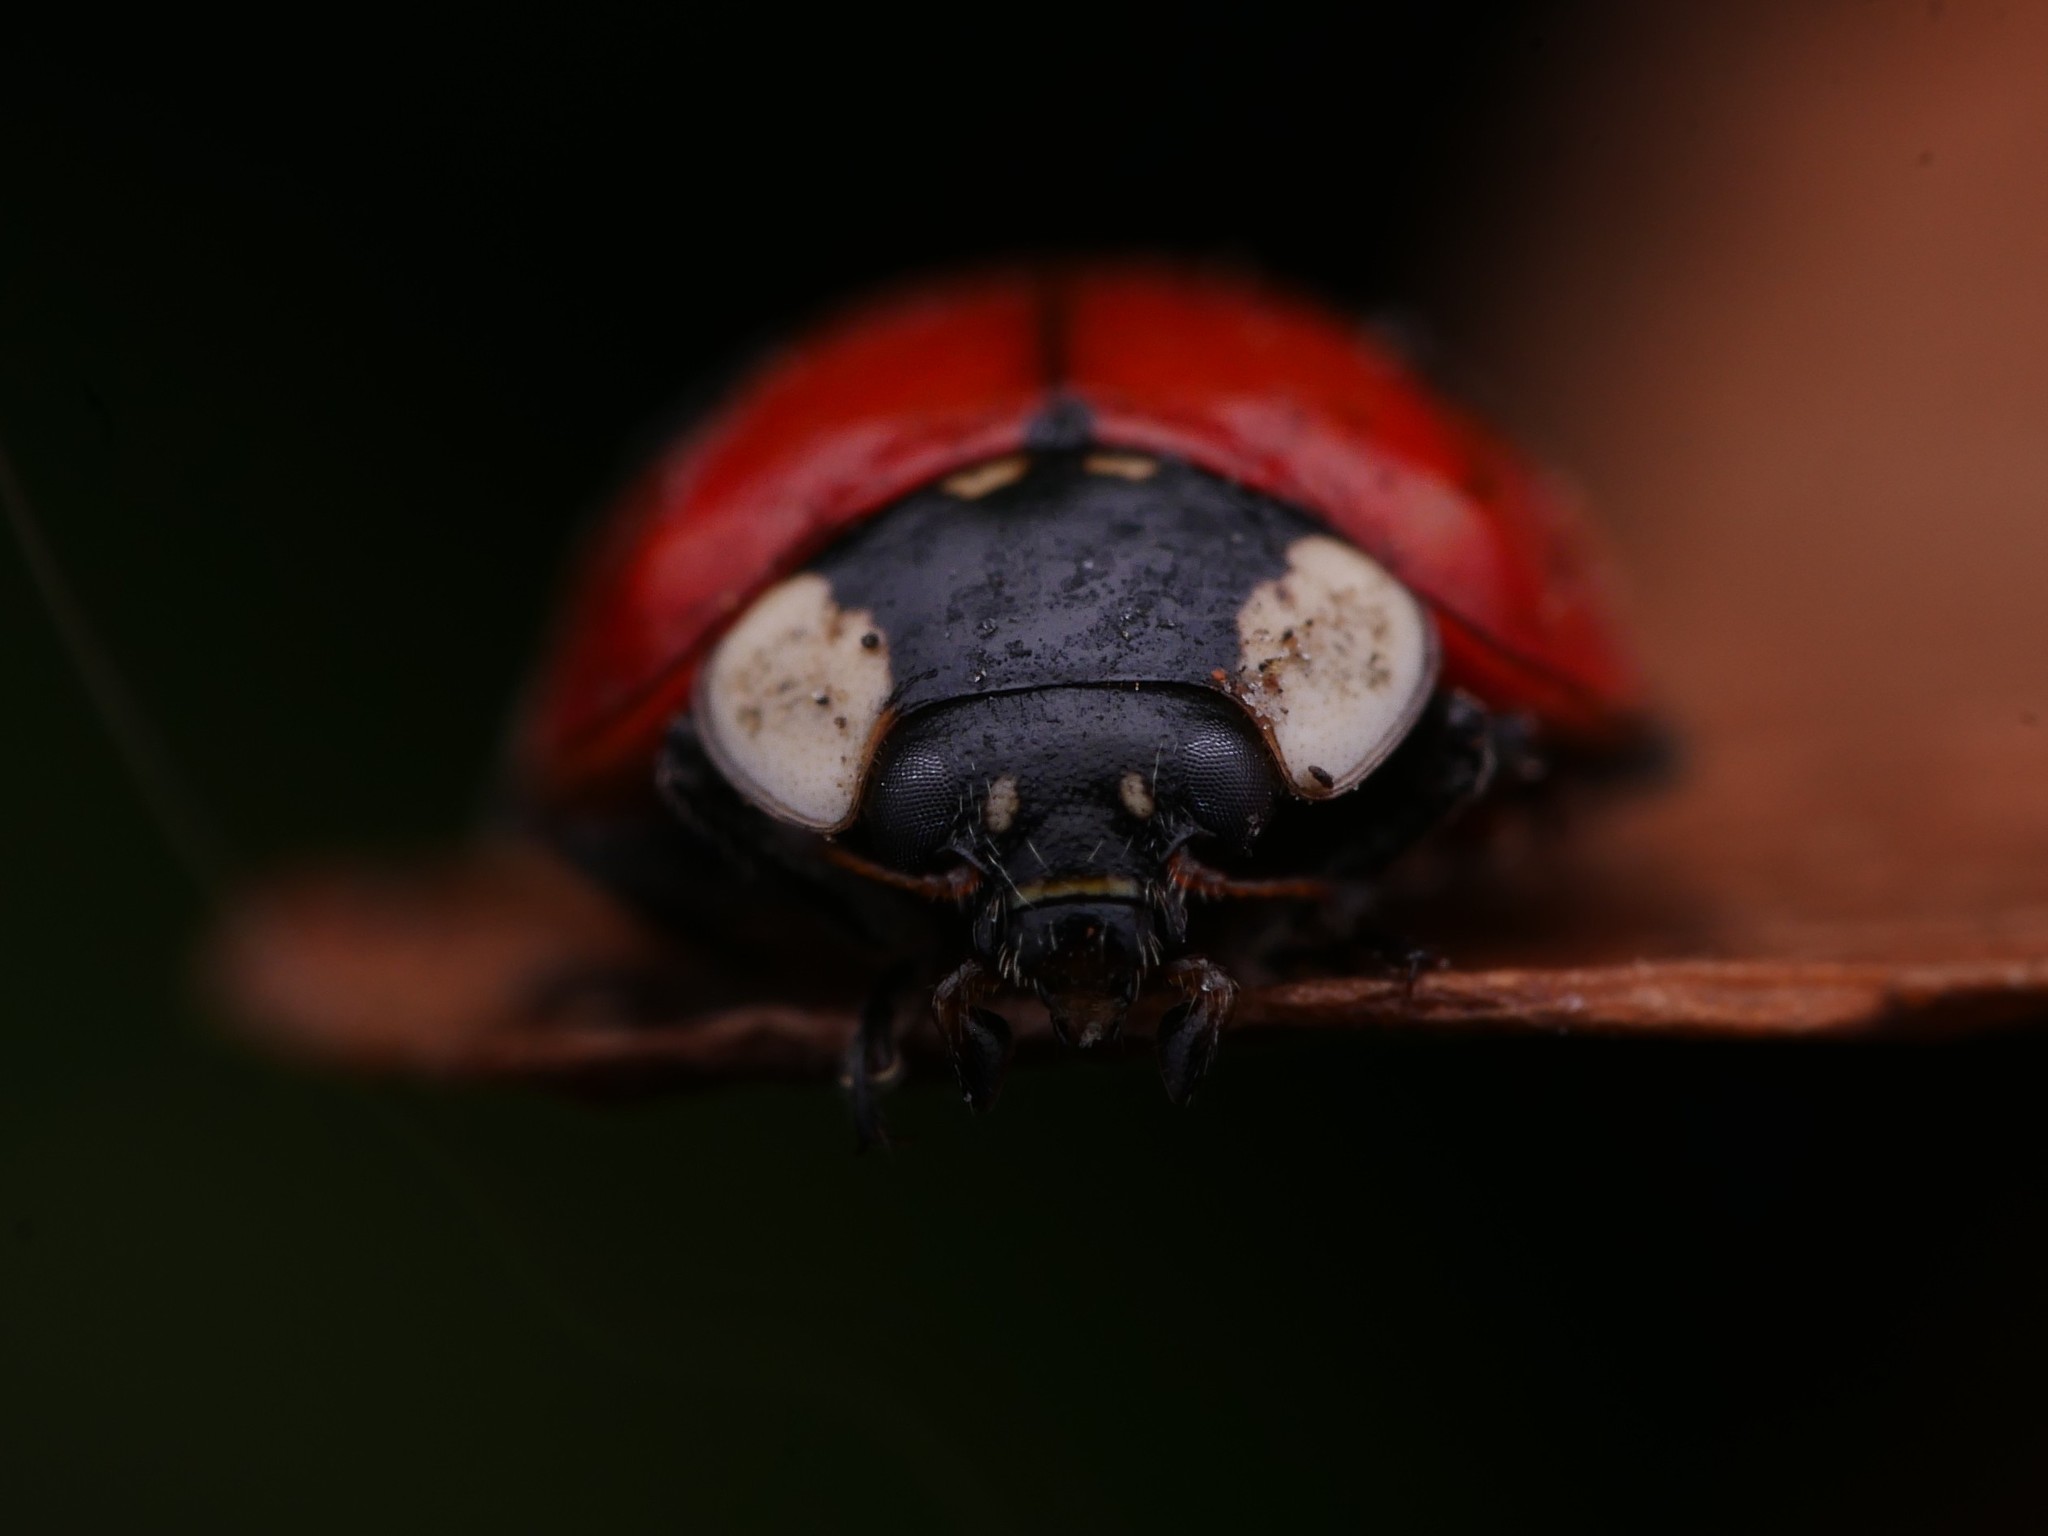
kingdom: Animalia
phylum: Arthropoda
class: Insecta
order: Coleoptera
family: Coccinellidae
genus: Adalia
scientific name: Adalia bipunctata
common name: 2-spot ladybird
